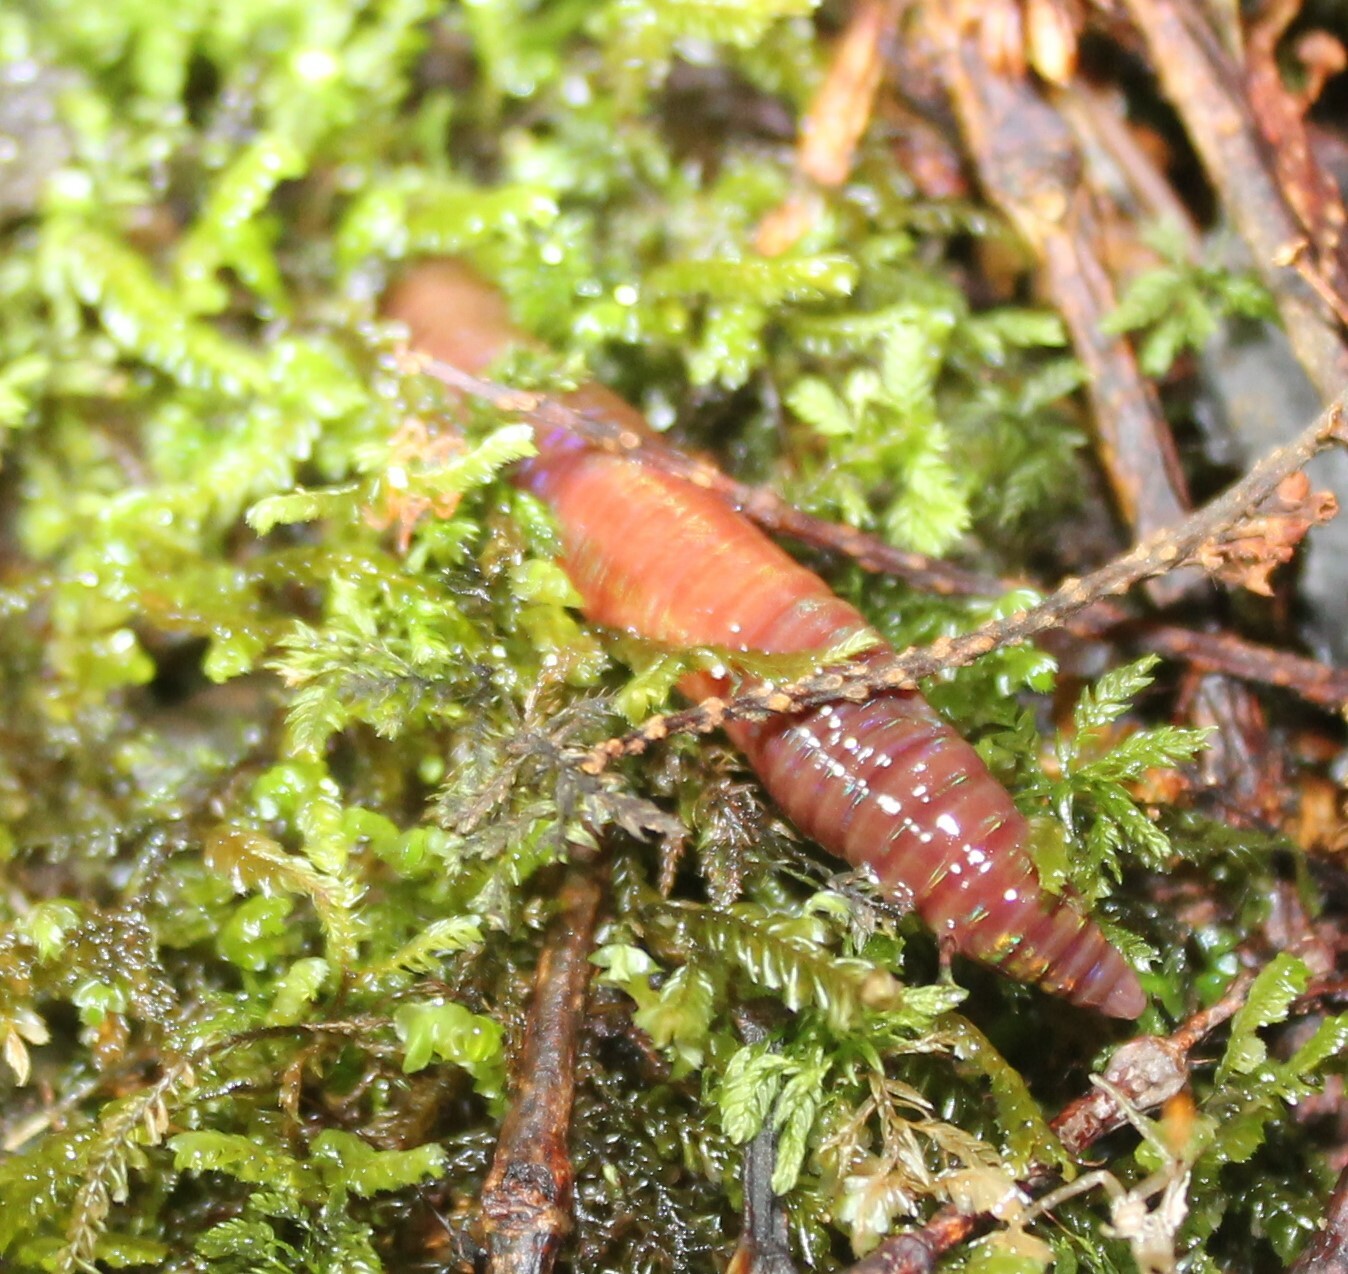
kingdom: Animalia
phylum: Annelida
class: Clitellata
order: Crassiclitellata
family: Lumbricidae
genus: Lumbricus
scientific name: Lumbricus terrestris
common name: Common earthworm
